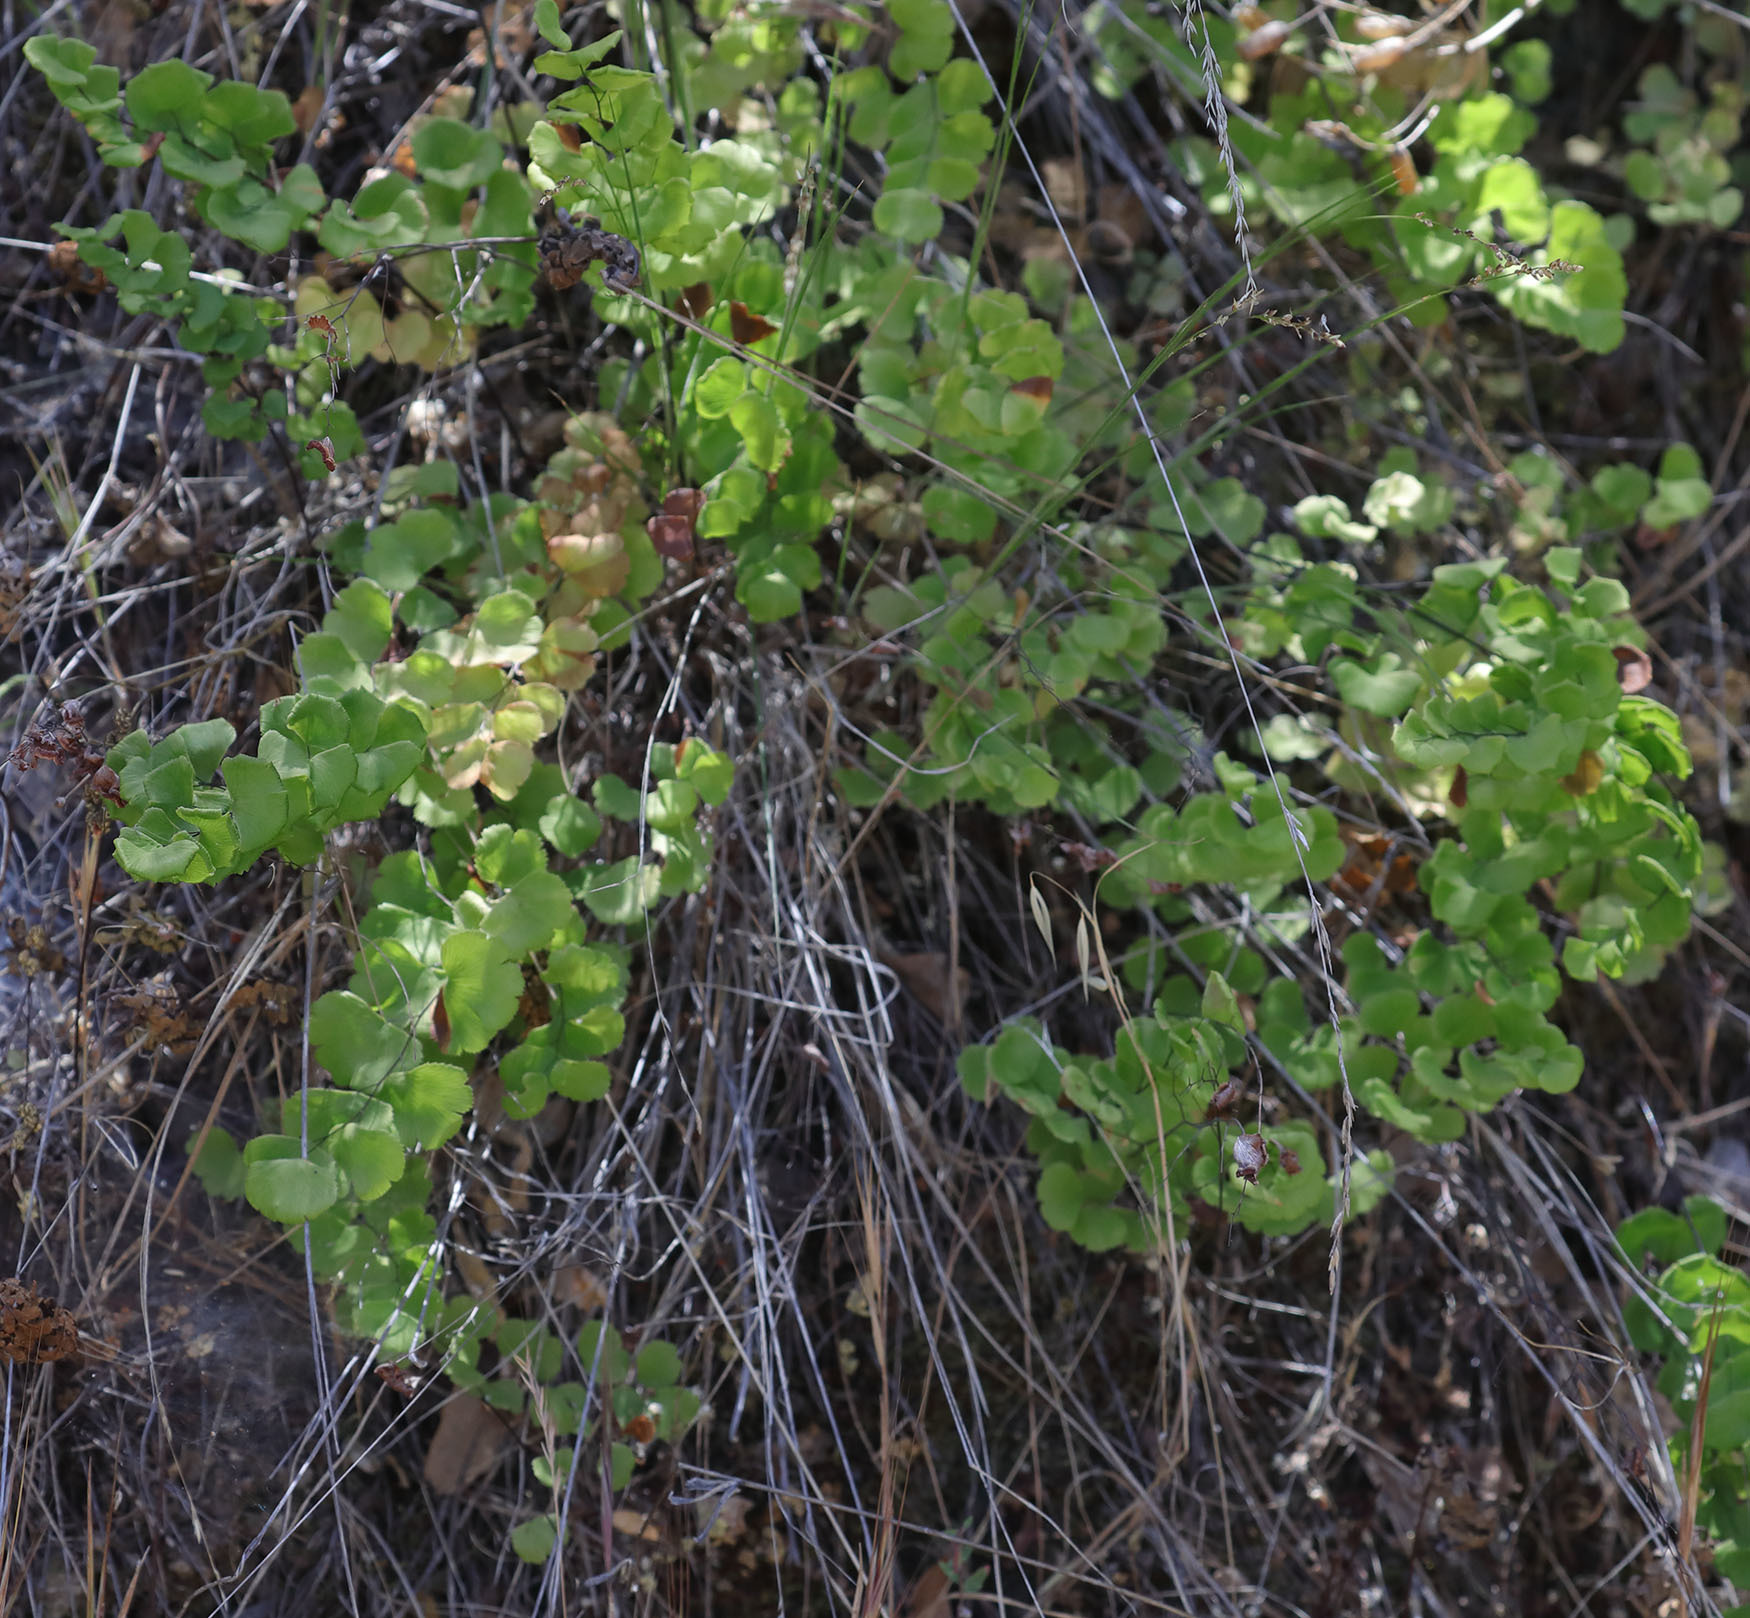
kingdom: Plantae
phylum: Tracheophyta
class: Polypodiopsida
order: Polypodiales
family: Pteridaceae
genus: Adiantum
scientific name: Adiantum jordanii
